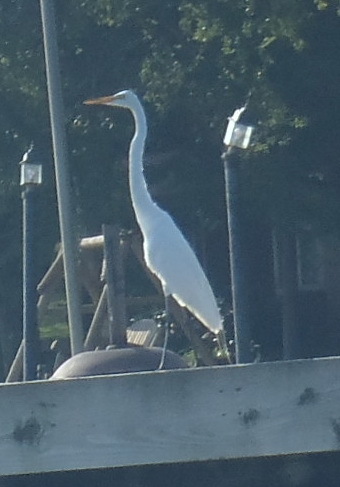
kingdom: Animalia
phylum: Chordata
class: Aves
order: Pelecaniformes
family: Ardeidae
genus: Ardea
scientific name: Ardea alba
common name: Great egret
